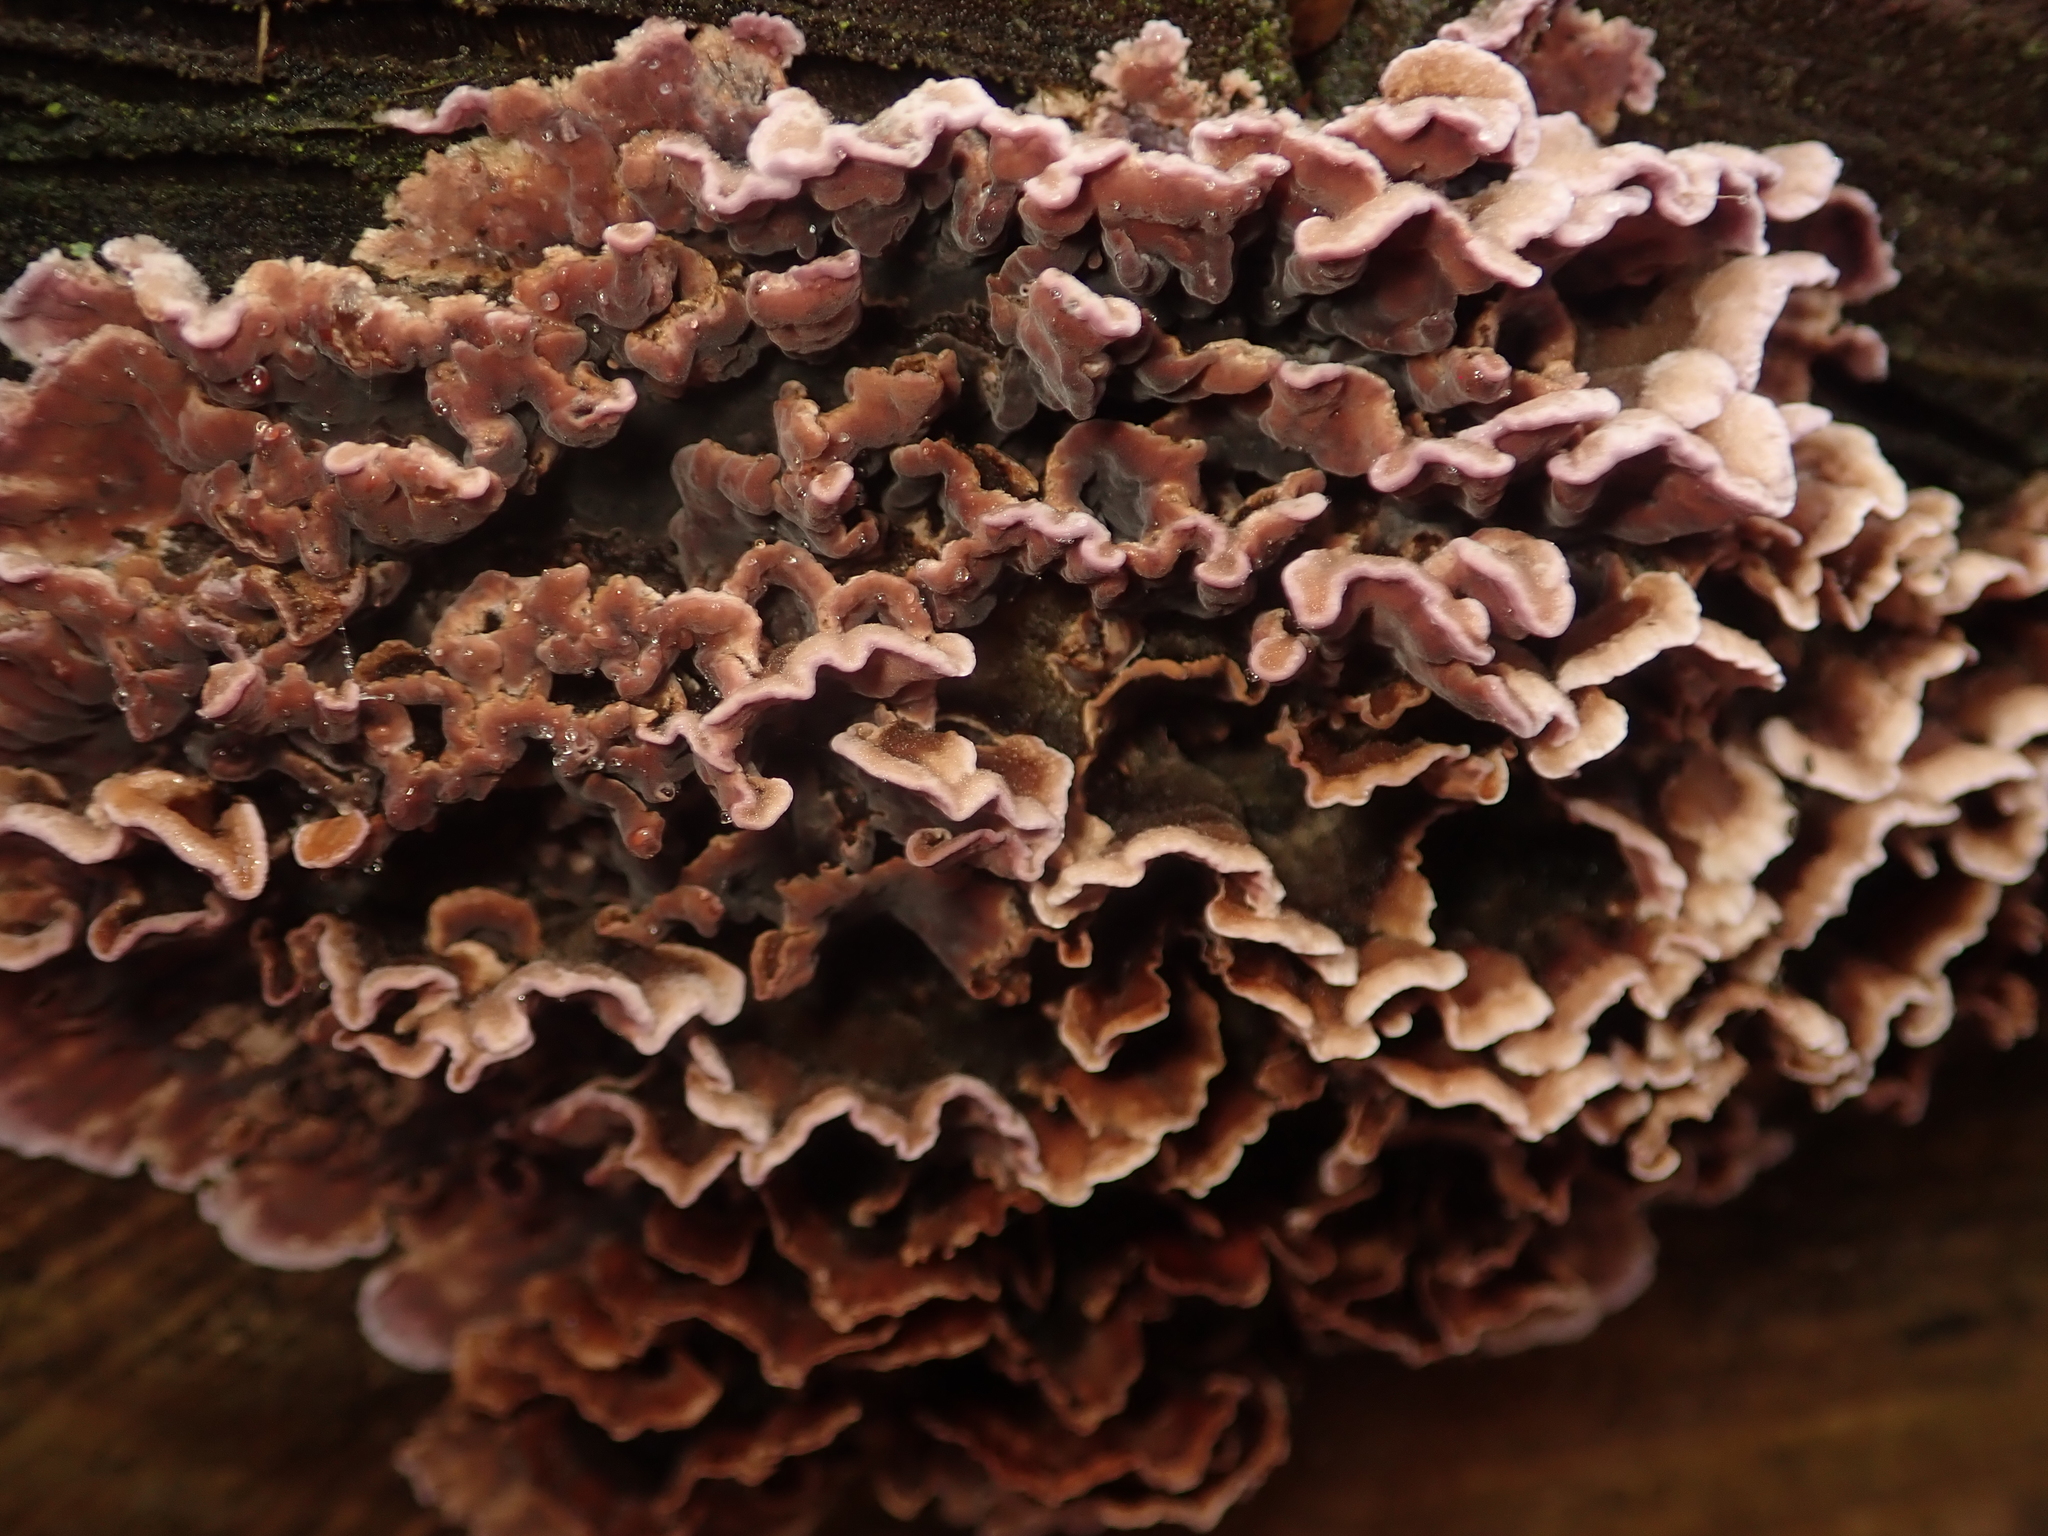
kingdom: Fungi
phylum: Basidiomycota
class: Agaricomycetes
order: Agaricales
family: Cyphellaceae
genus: Chondrostereum
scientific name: Chondrostereum purpureum
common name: Silver leaf disease
